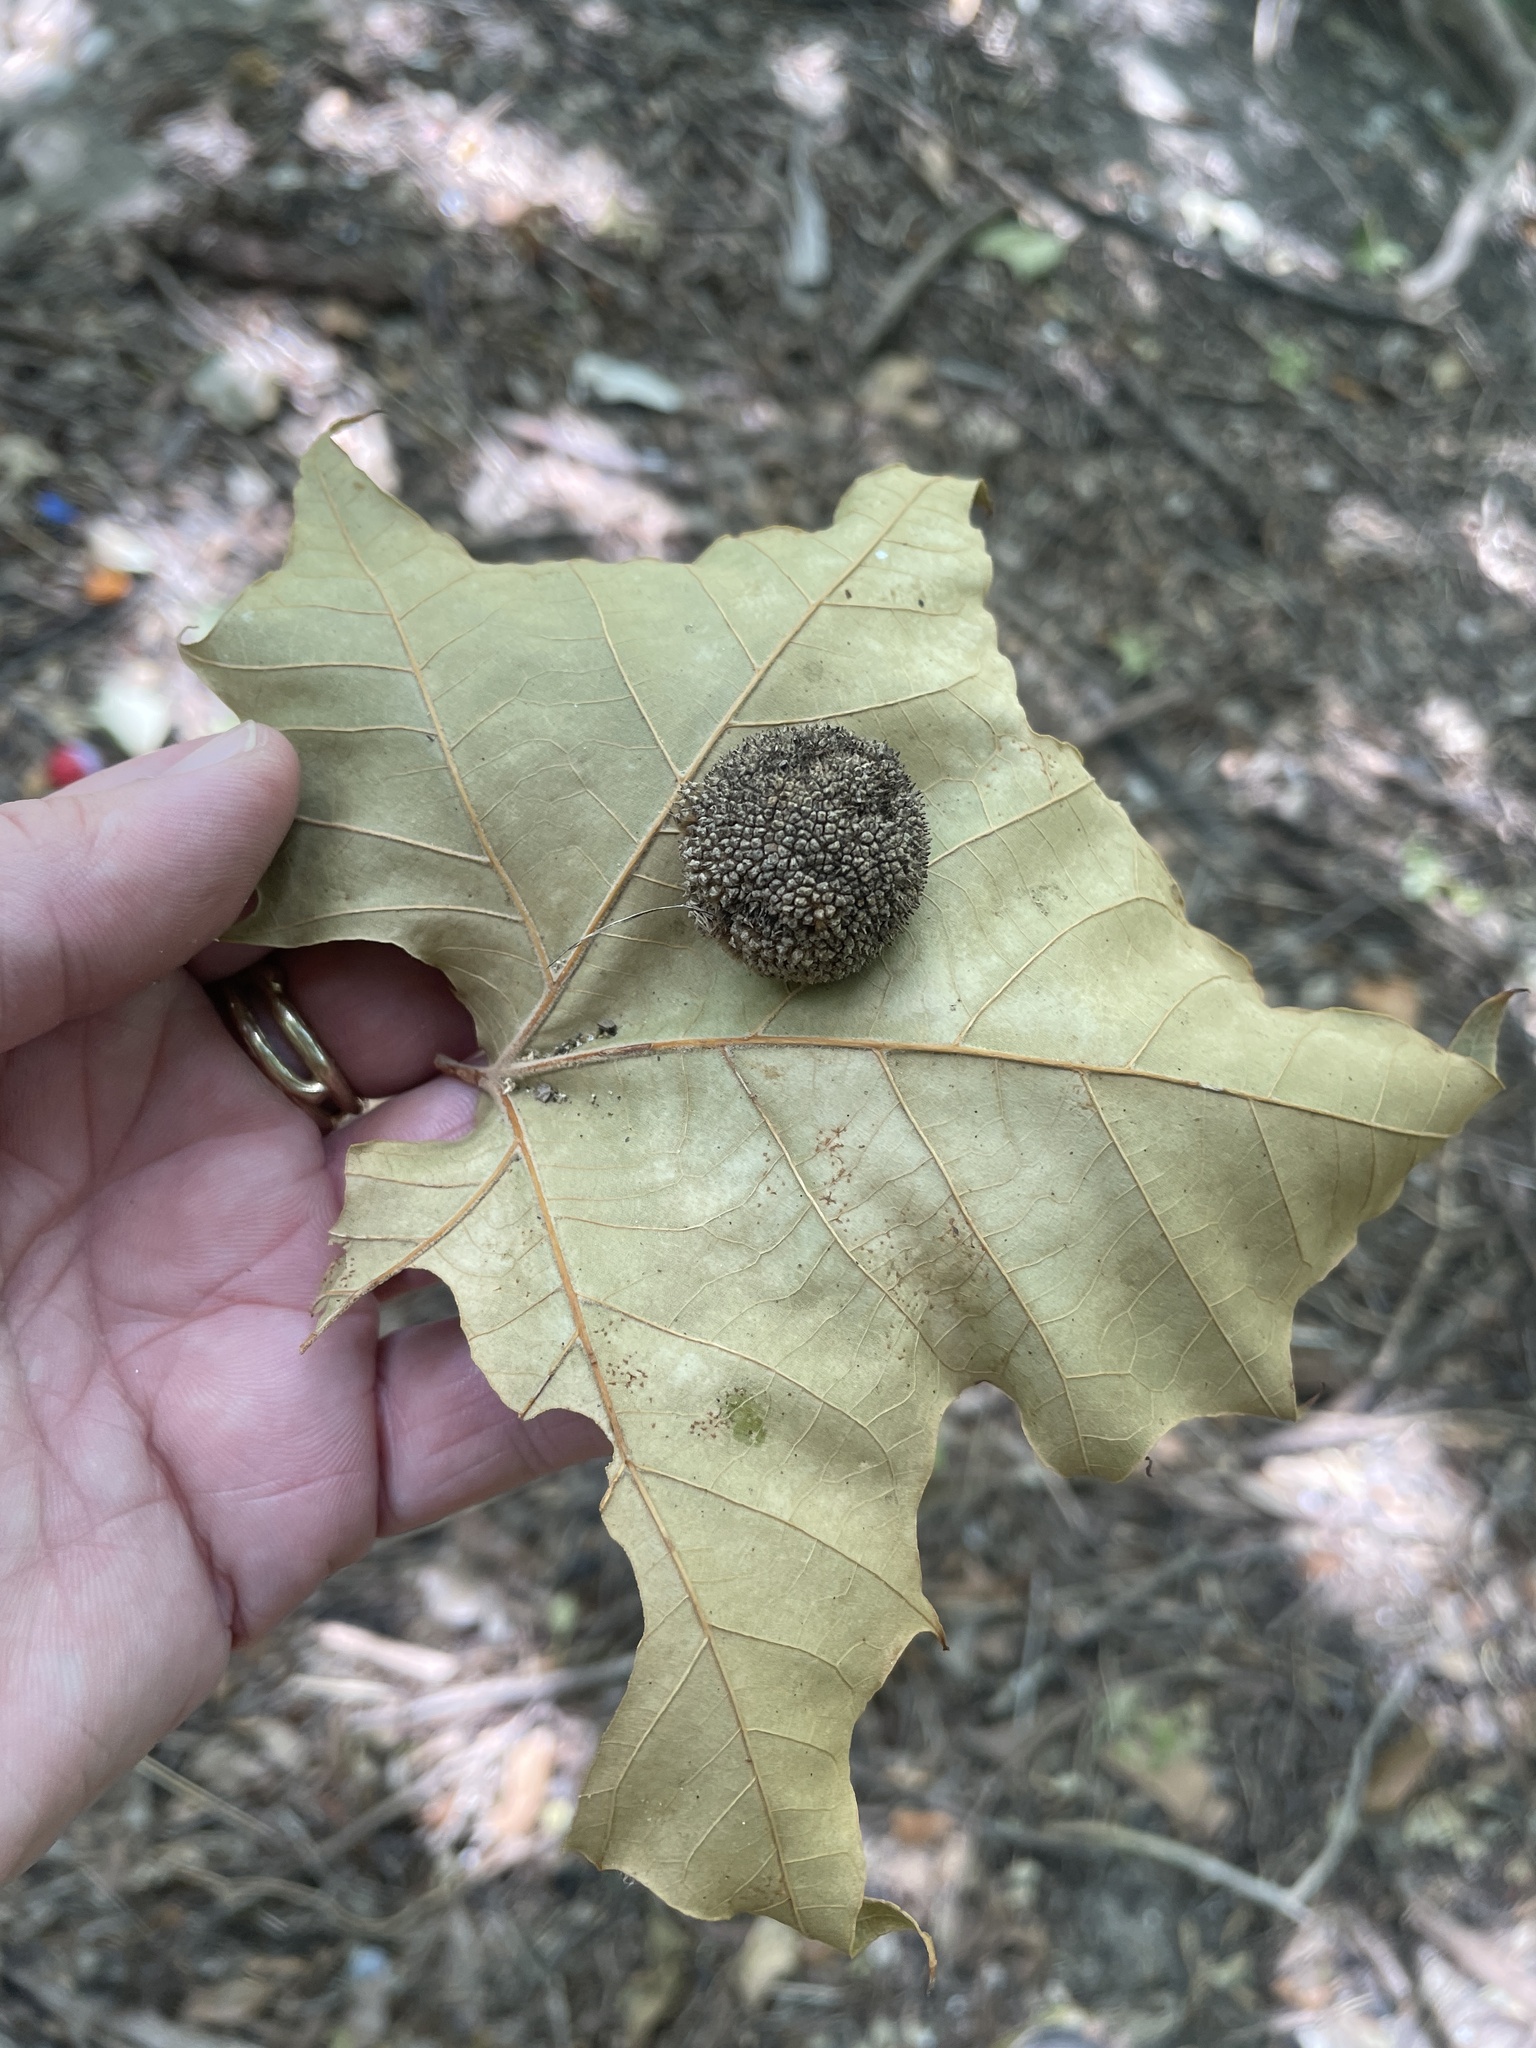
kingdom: Plantae
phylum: Tracheophyta
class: Magnoliopsida
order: Proteales
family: Platanaceae
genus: Platanus
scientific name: Platanus occidentalis
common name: American sycamore
